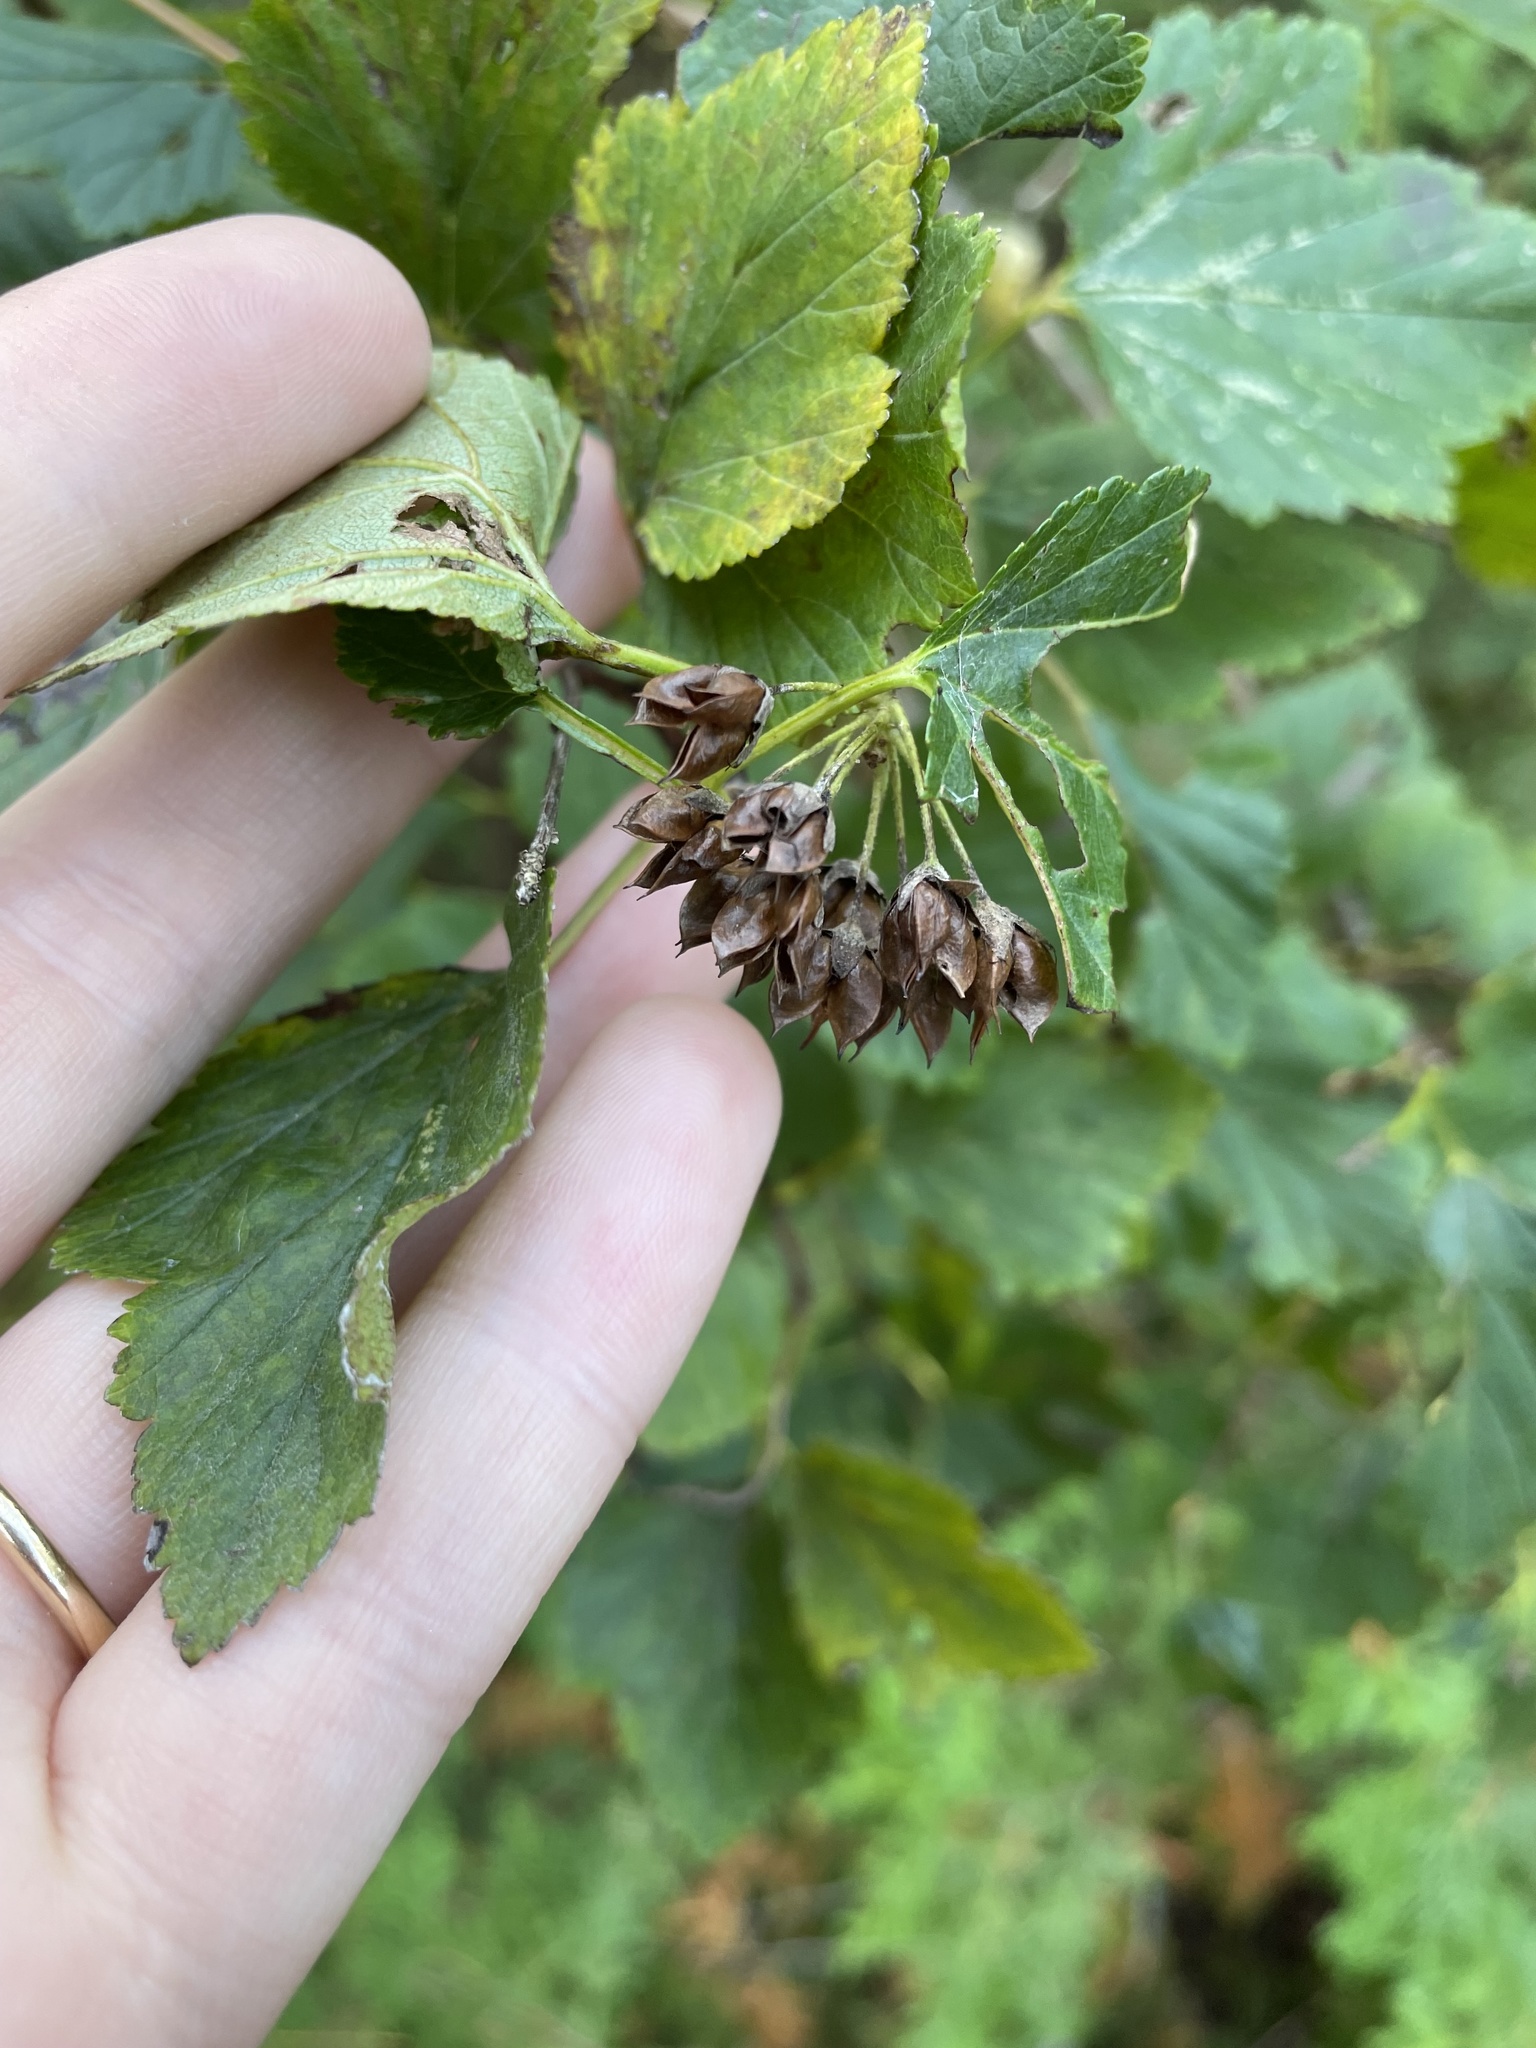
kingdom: Plantae
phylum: Tracheophyta
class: Magnoliopsida
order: Rosales
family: Rosaceae
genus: Physocarpus
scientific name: Physocarpus opulifolius
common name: Ninebark
